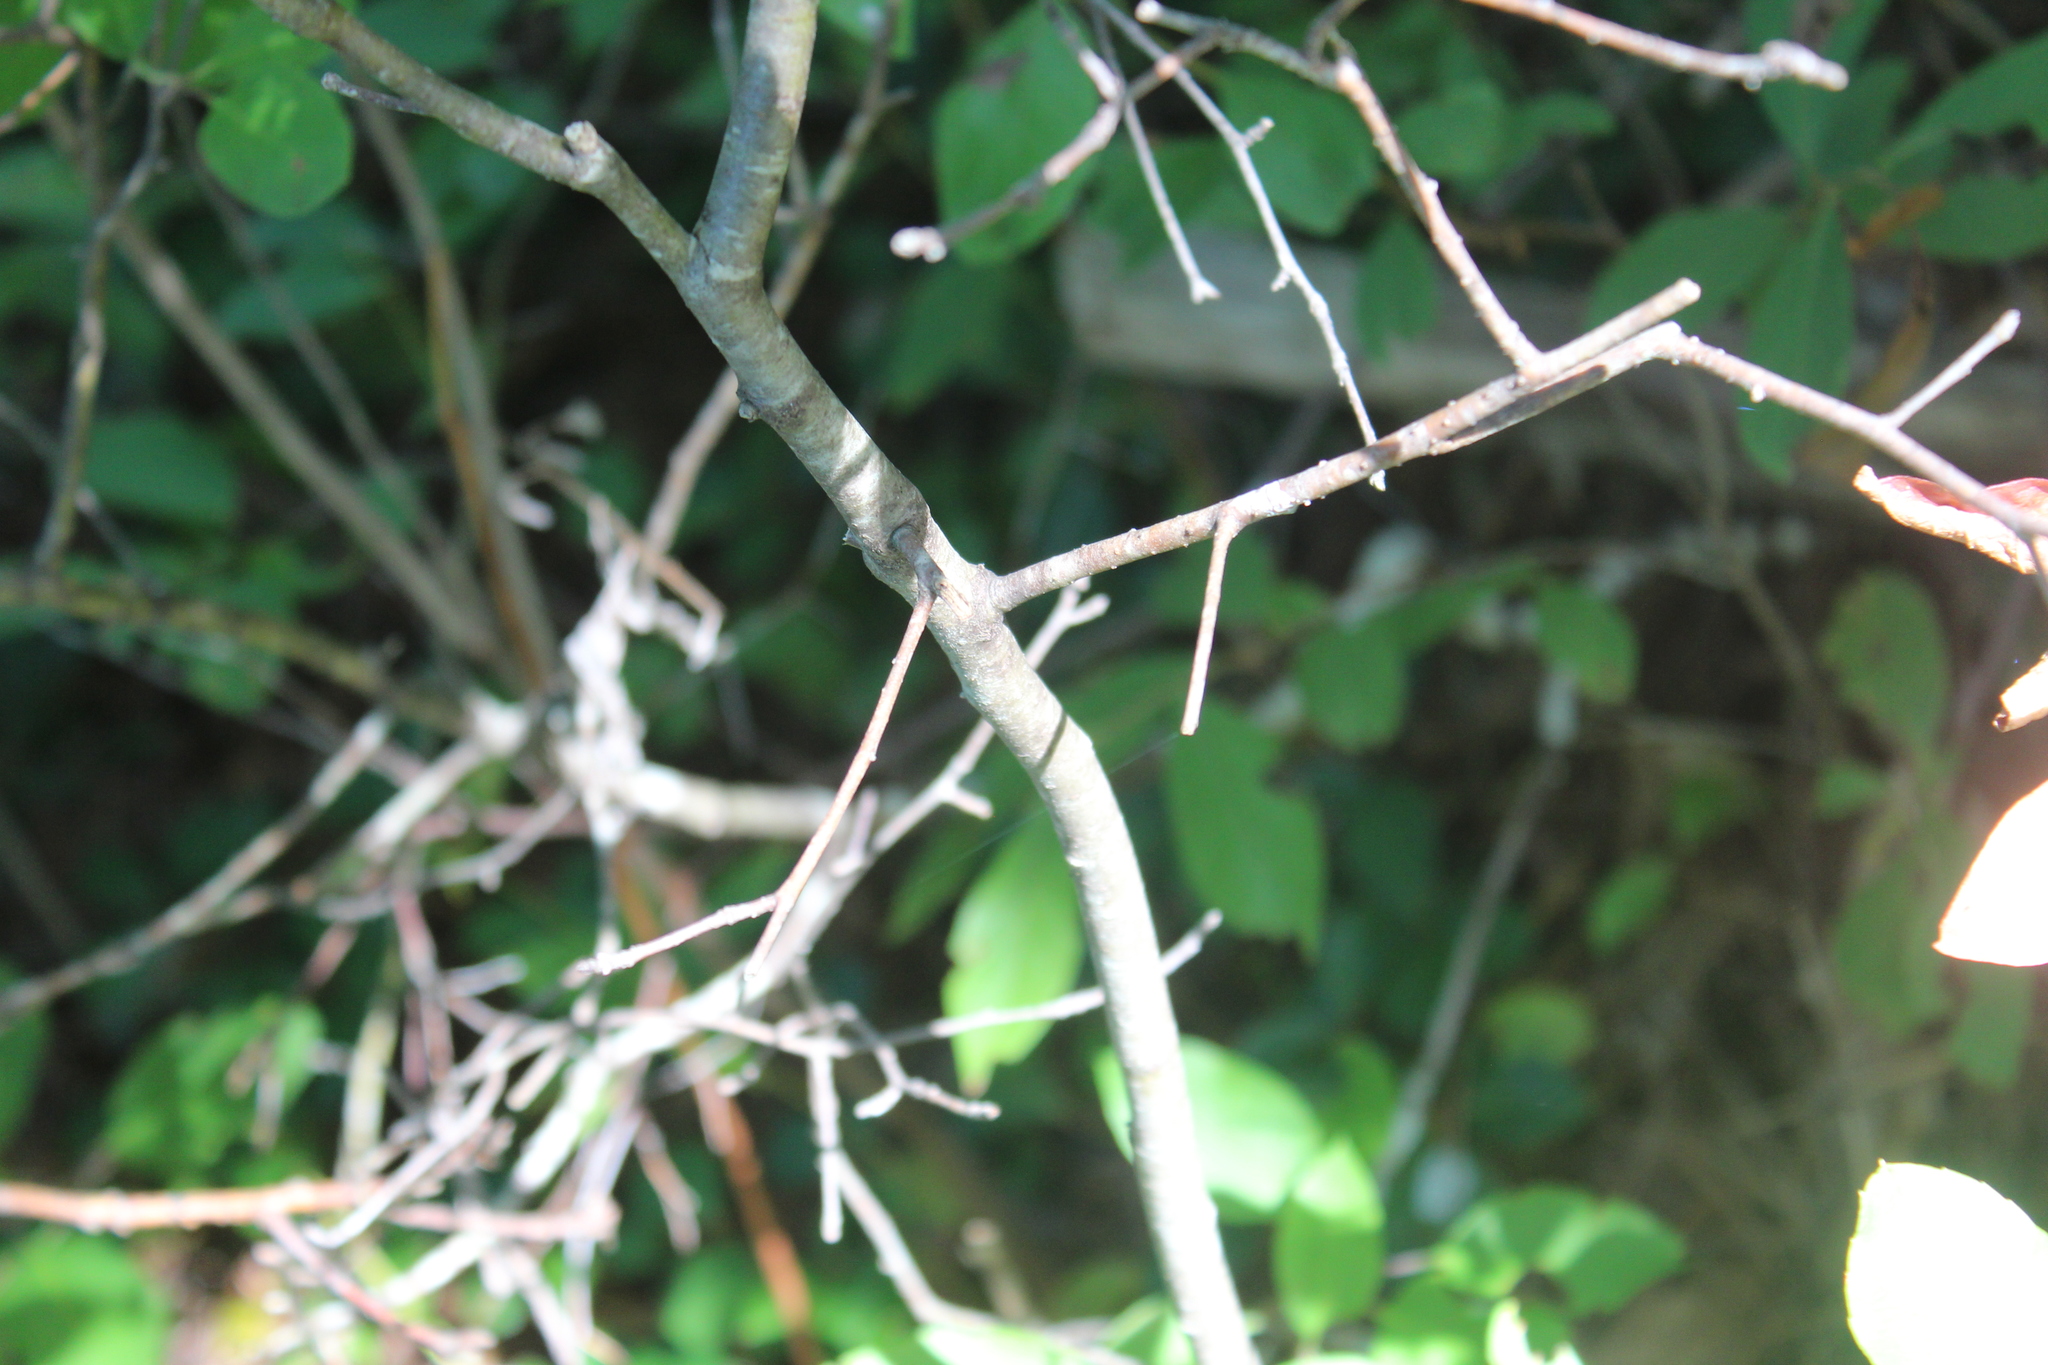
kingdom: Plantae
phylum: Tracheophyta
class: Magnoliopsida
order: Aquifoliales
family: Aquifoliaceae
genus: Ilex
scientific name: Ilex mucronata
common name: Catberry
